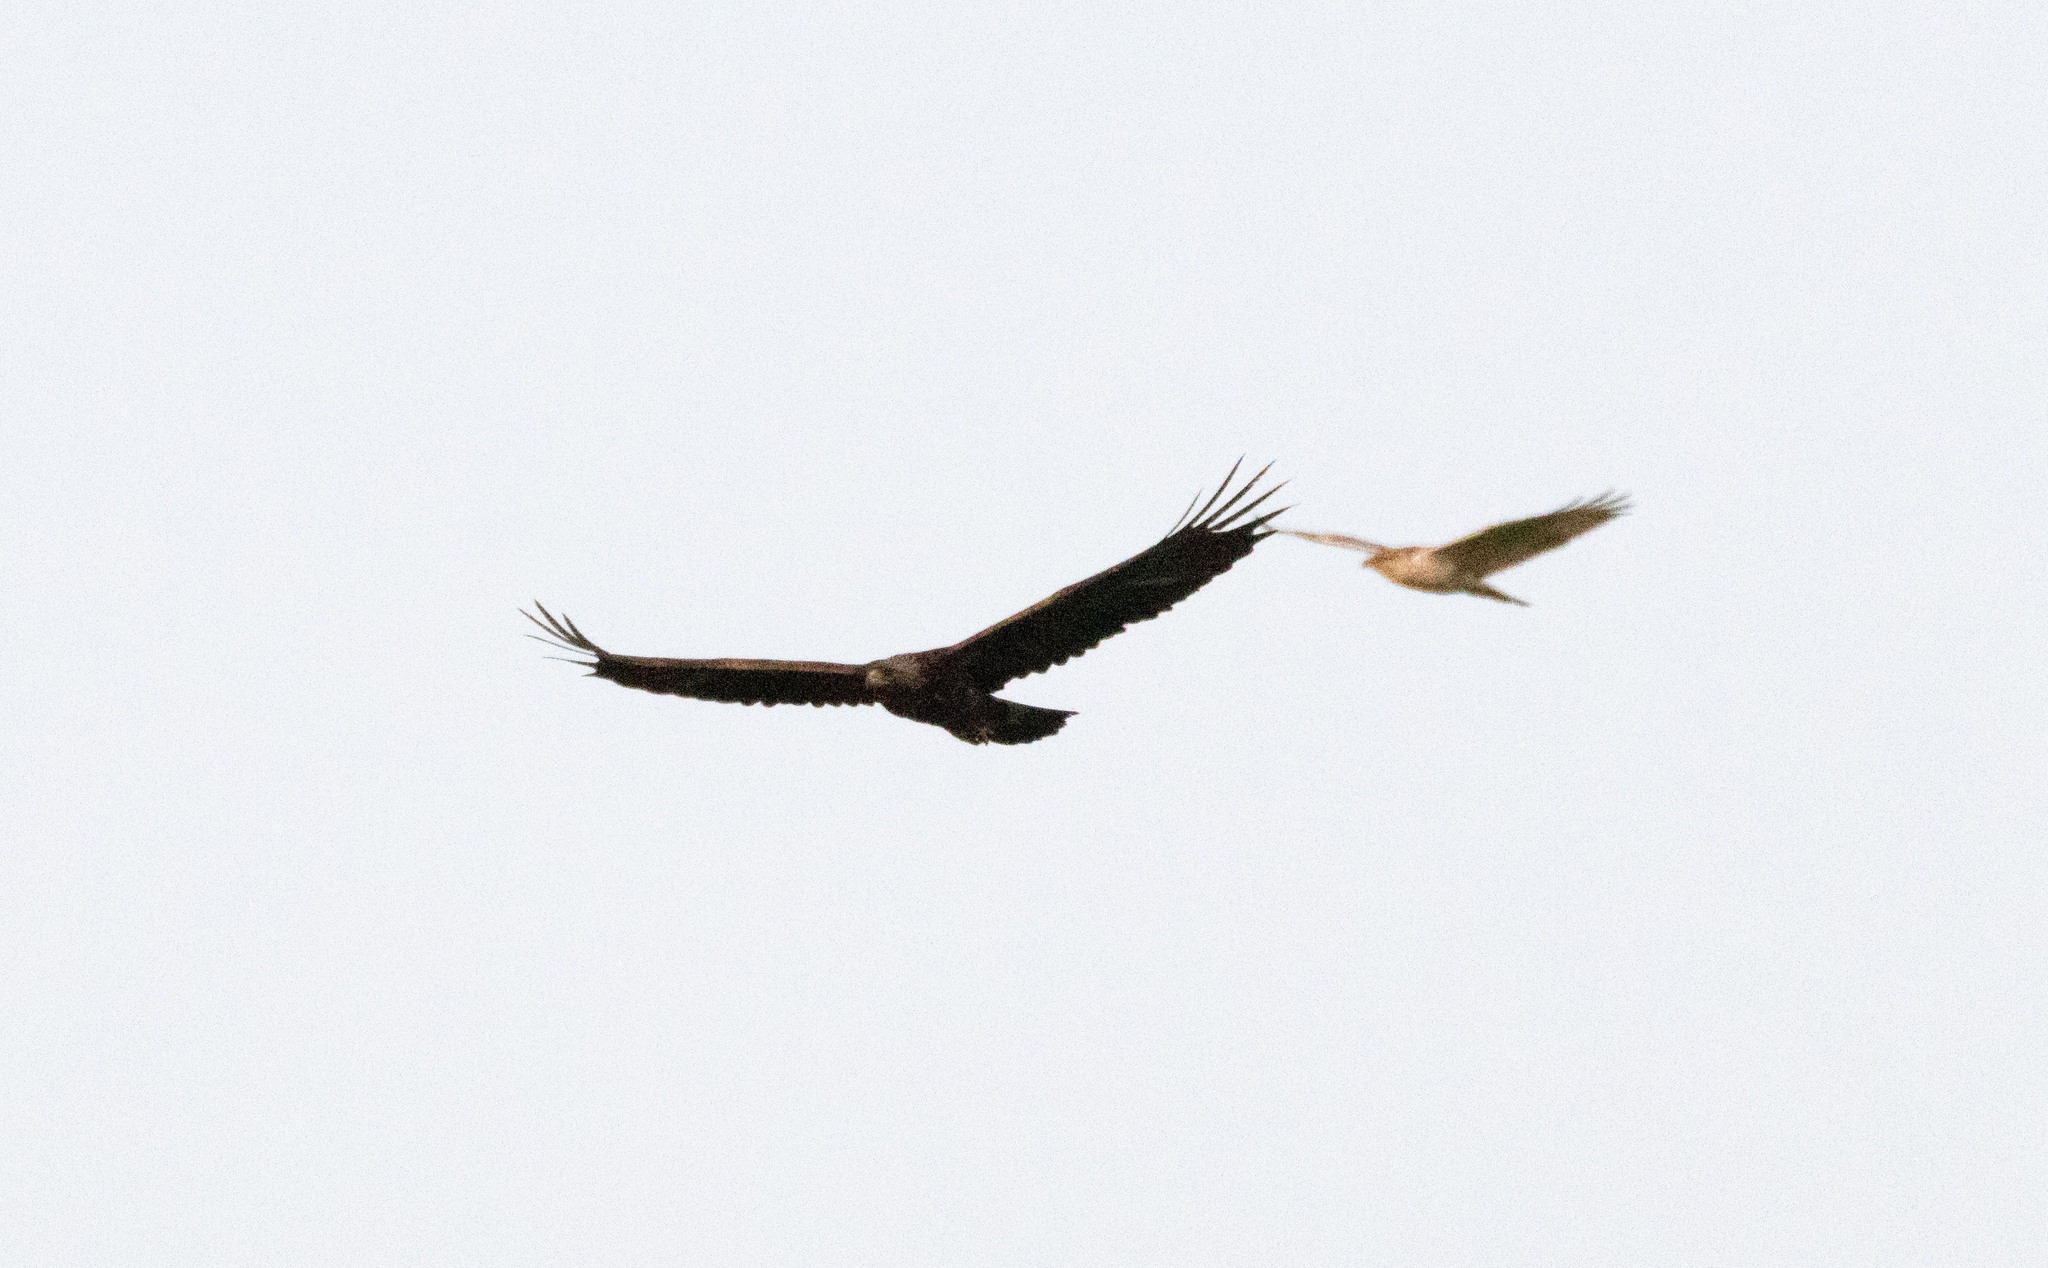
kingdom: Animalia
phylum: Chordata
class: Aves
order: Accipitriformes
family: Accipitridae
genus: Aquila
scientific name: Aquila chrysaetos
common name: Golden eagle
